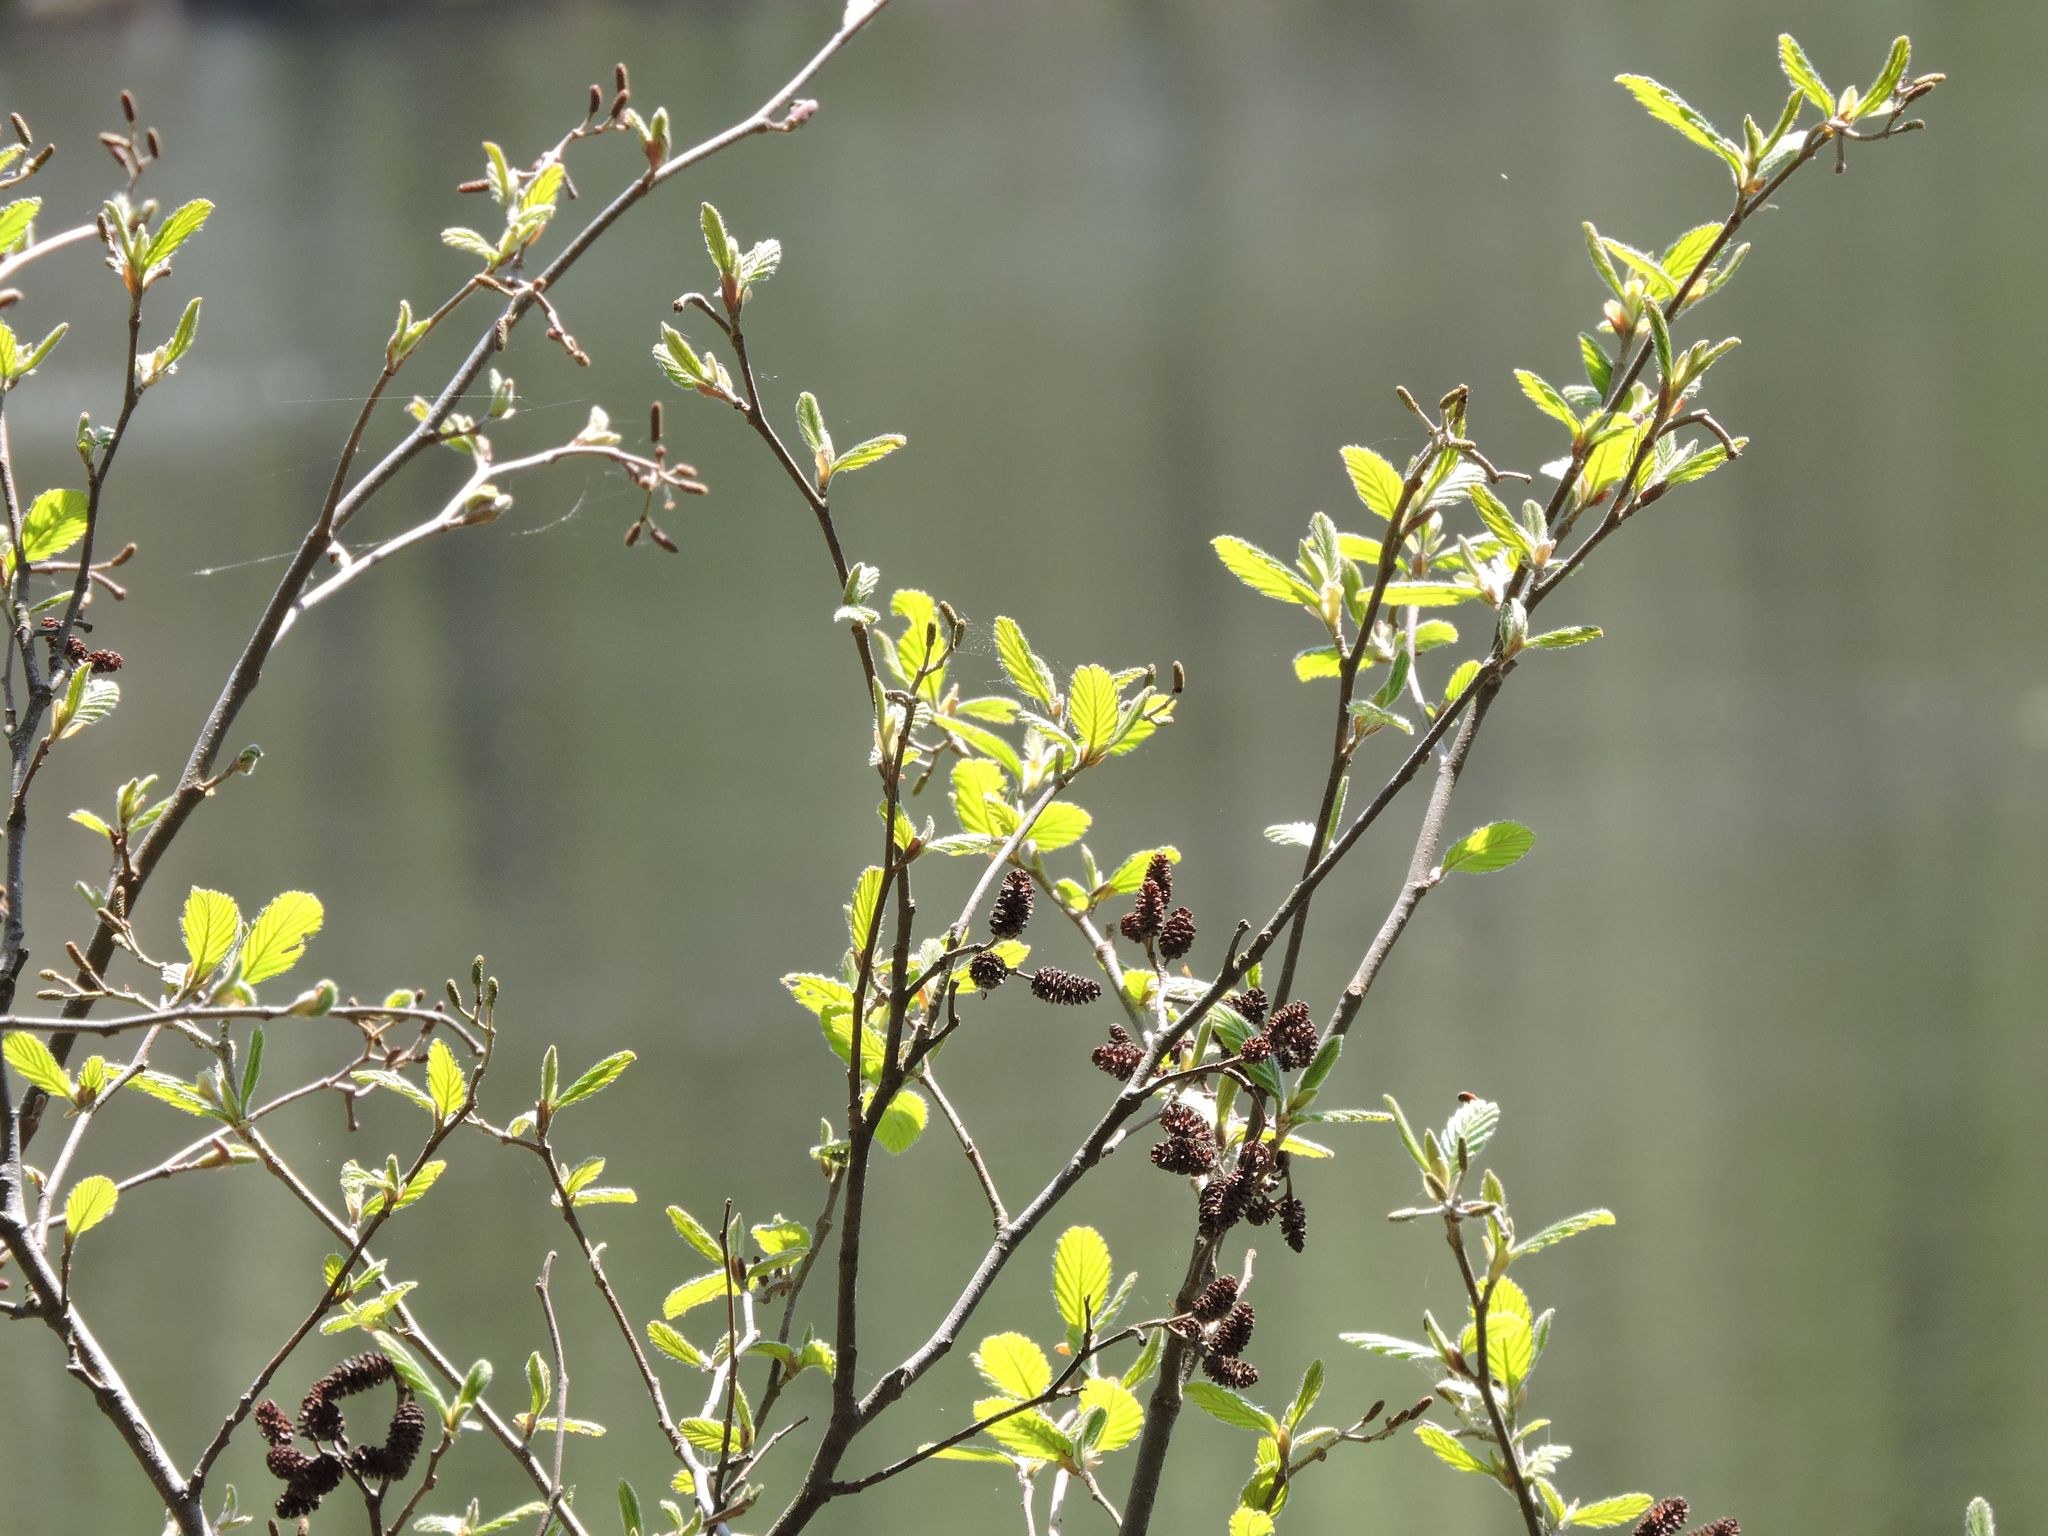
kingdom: Plantae
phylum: Tracheophyta
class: Magnoliopsida
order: Fagales
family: Betulaceae
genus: Alnus
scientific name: Alnus serrulata
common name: Hazel alder
